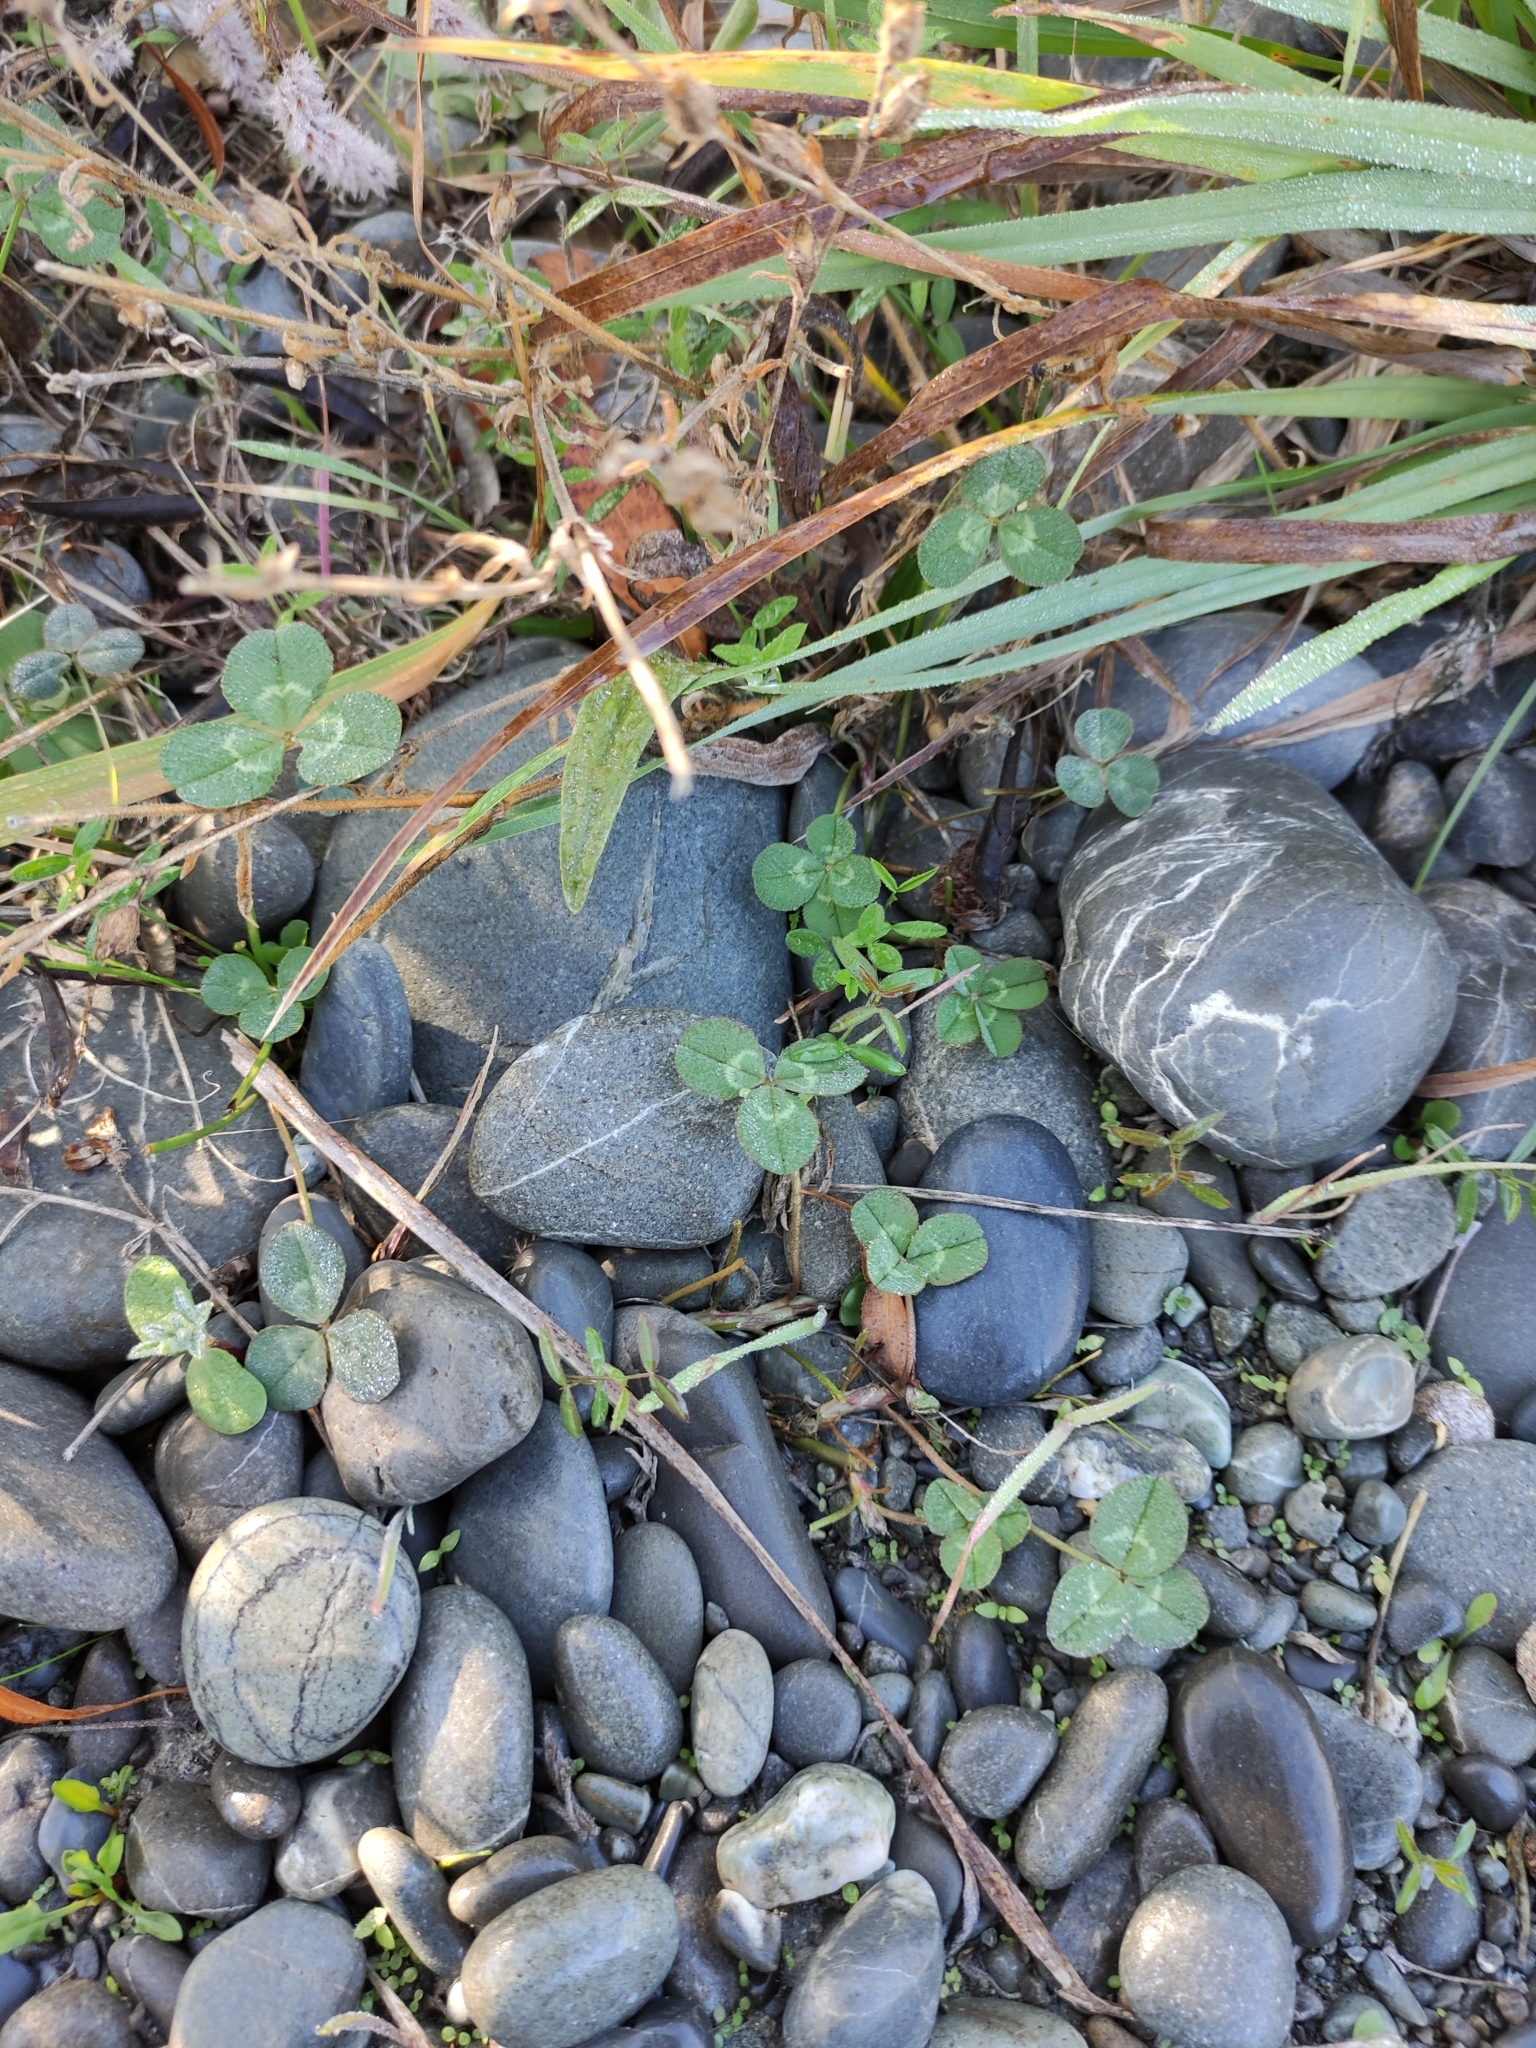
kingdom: Plantae
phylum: Tracheophyta
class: Magnoliopsida
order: Fabales
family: Fabaceae
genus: Trifolium
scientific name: Trifolium repens
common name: White clover
